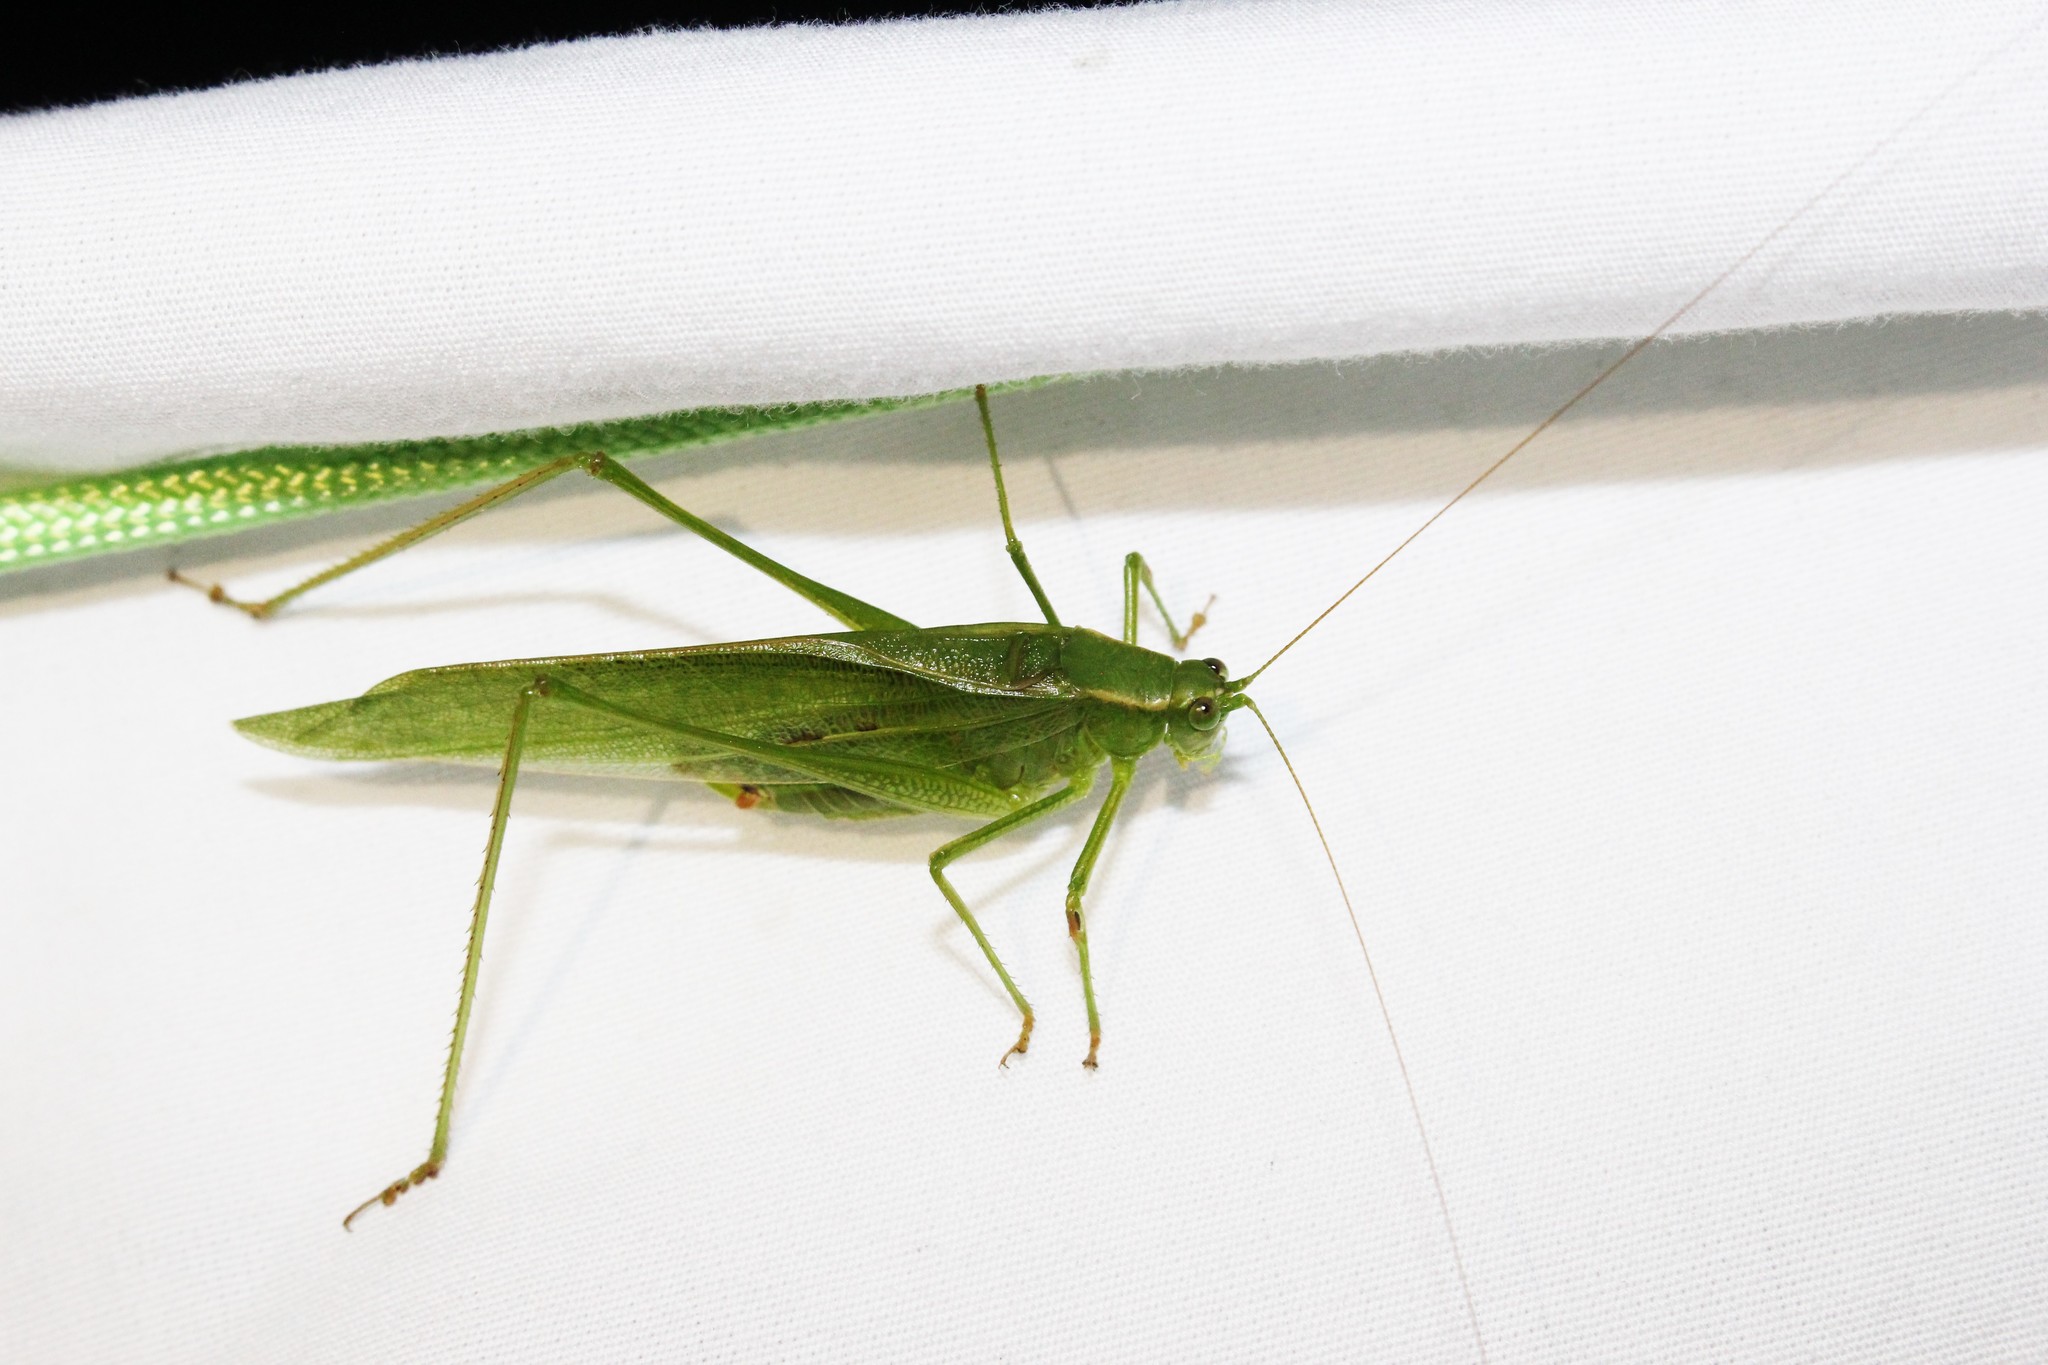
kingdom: Animalia
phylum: Arthropoda
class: Insecta
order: Orthoptera
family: Tettigoniidae
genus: Scudderia
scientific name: Scudderia septentrionalis
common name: Northern bush-katydid
